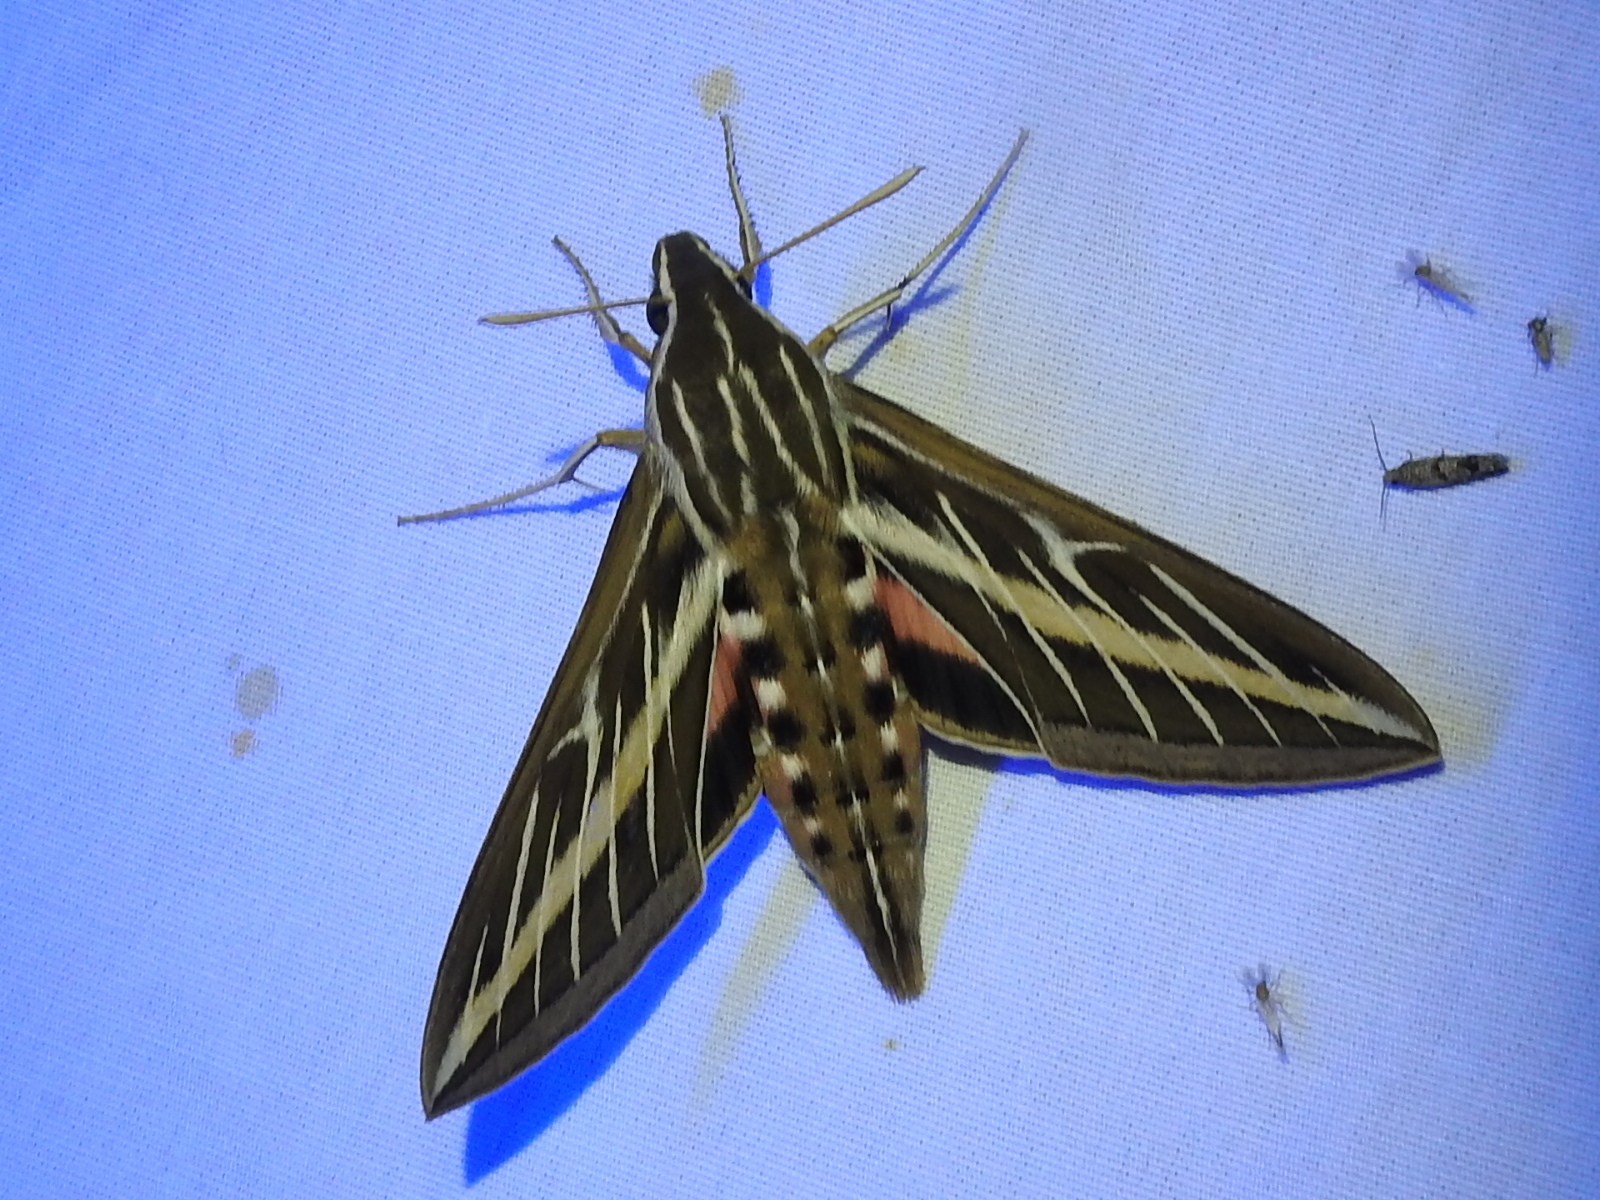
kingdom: Animalia
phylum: Arthropoda
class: Insecta
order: Lepidoptera
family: Sphingidae
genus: Hyles
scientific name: Hyles lineata
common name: White-lined sphinx
